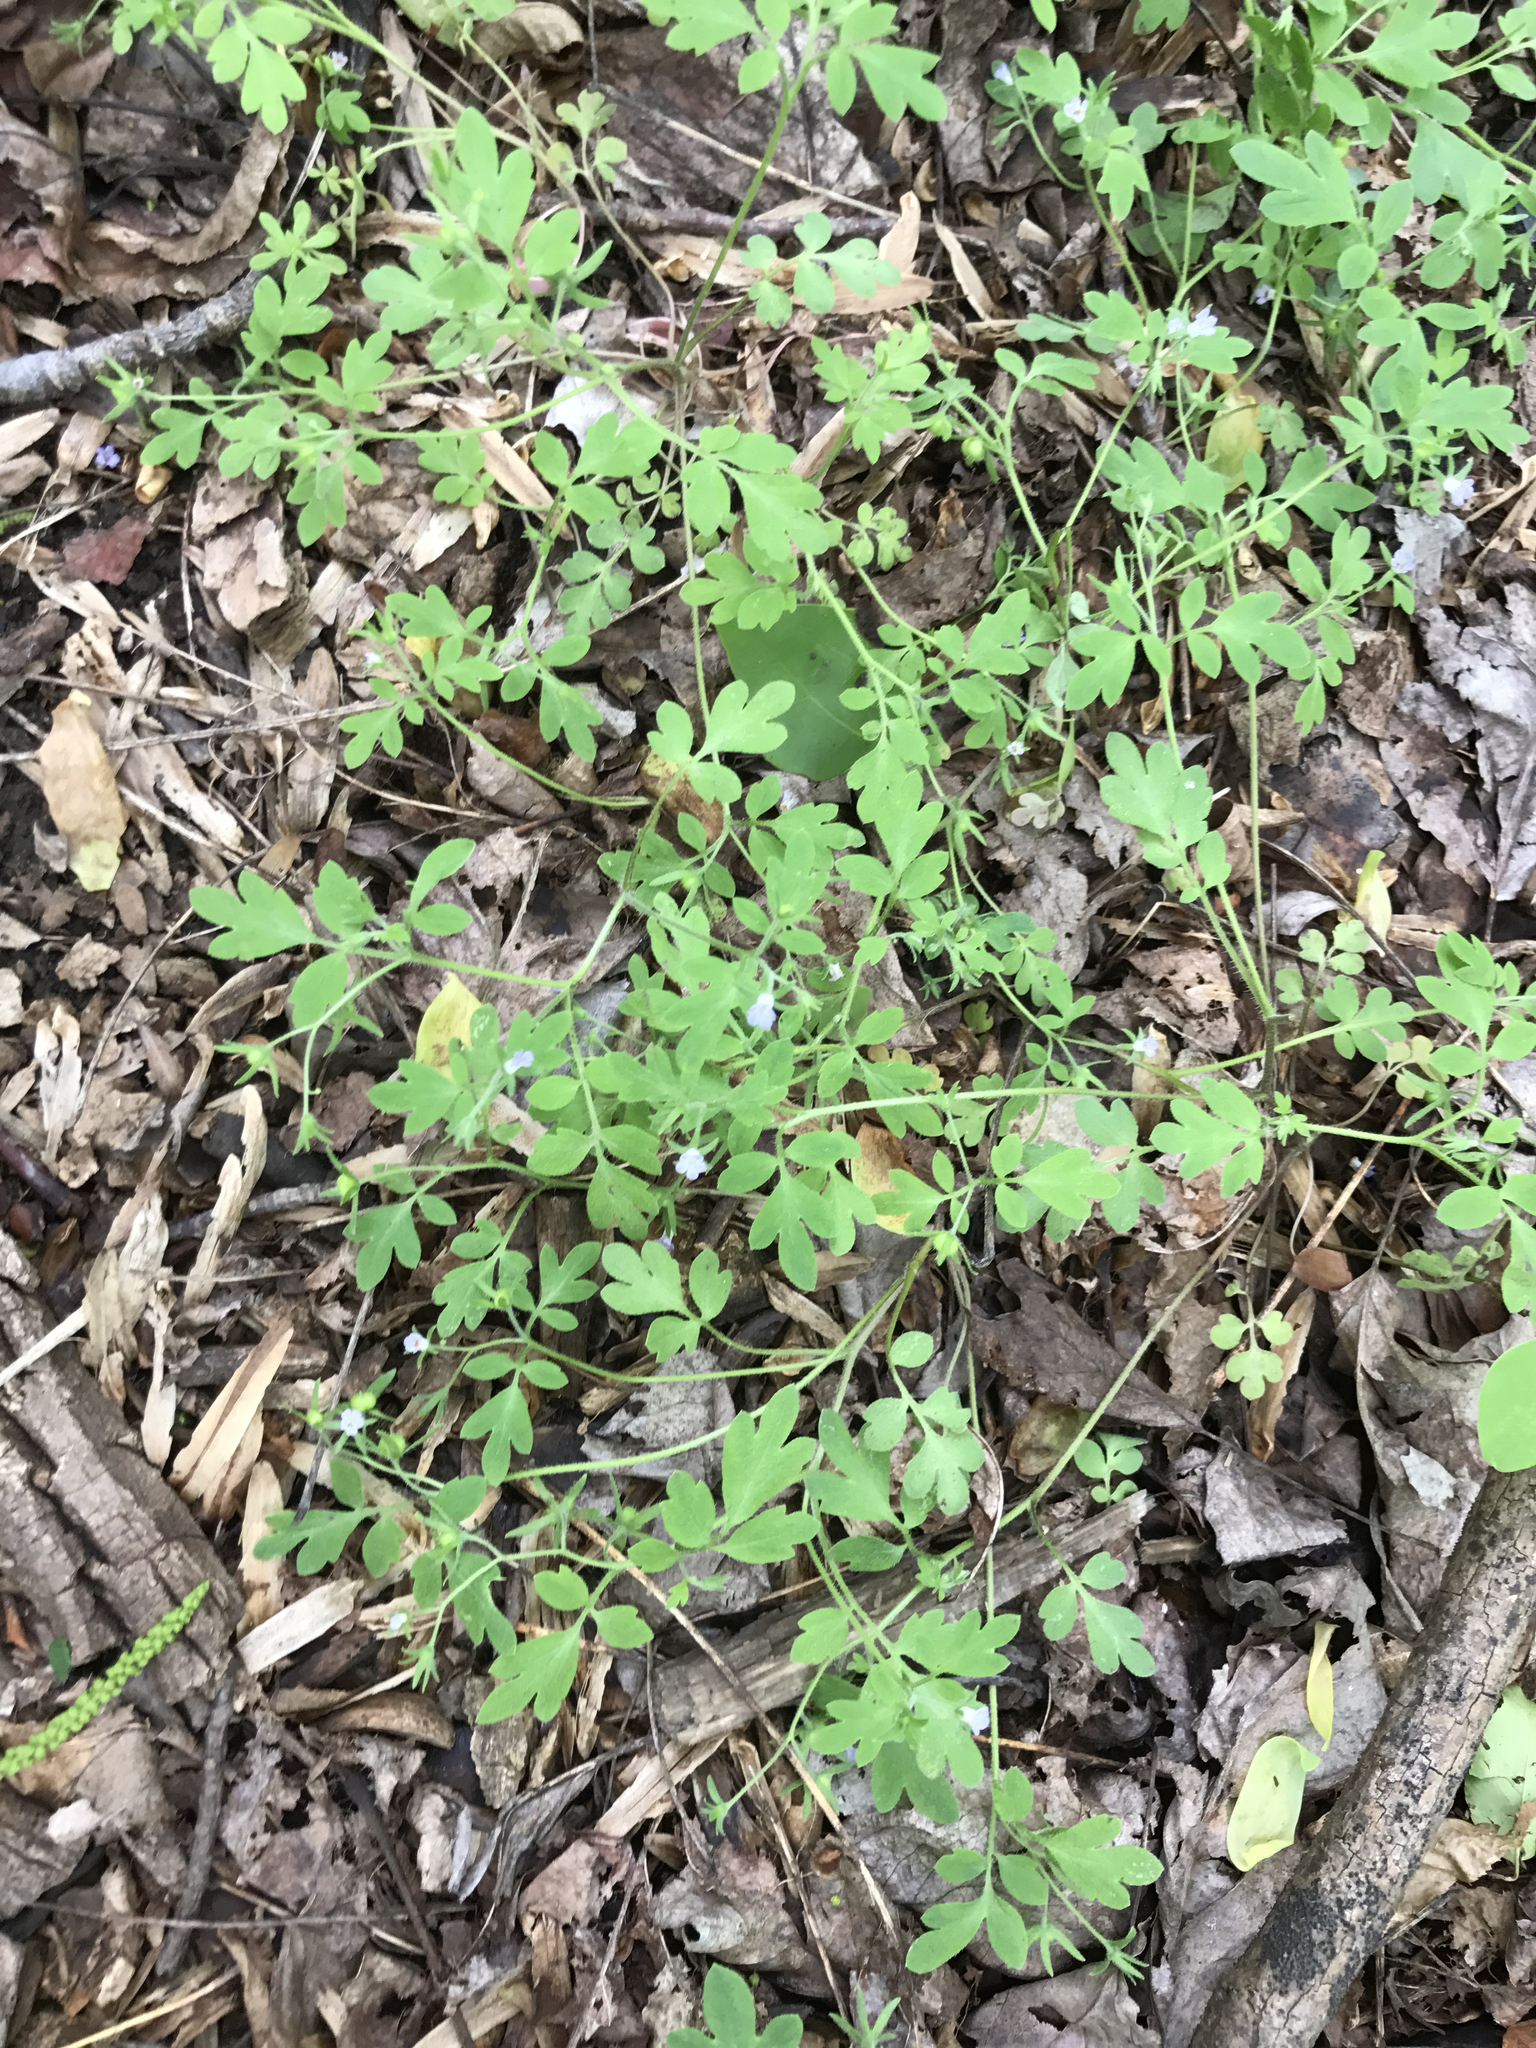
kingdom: Plantae
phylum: Tracheophyta
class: Magnoliopsida
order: Boraginales
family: Hydrophyllaceae
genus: Phacelia
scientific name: Phacelia covillei
